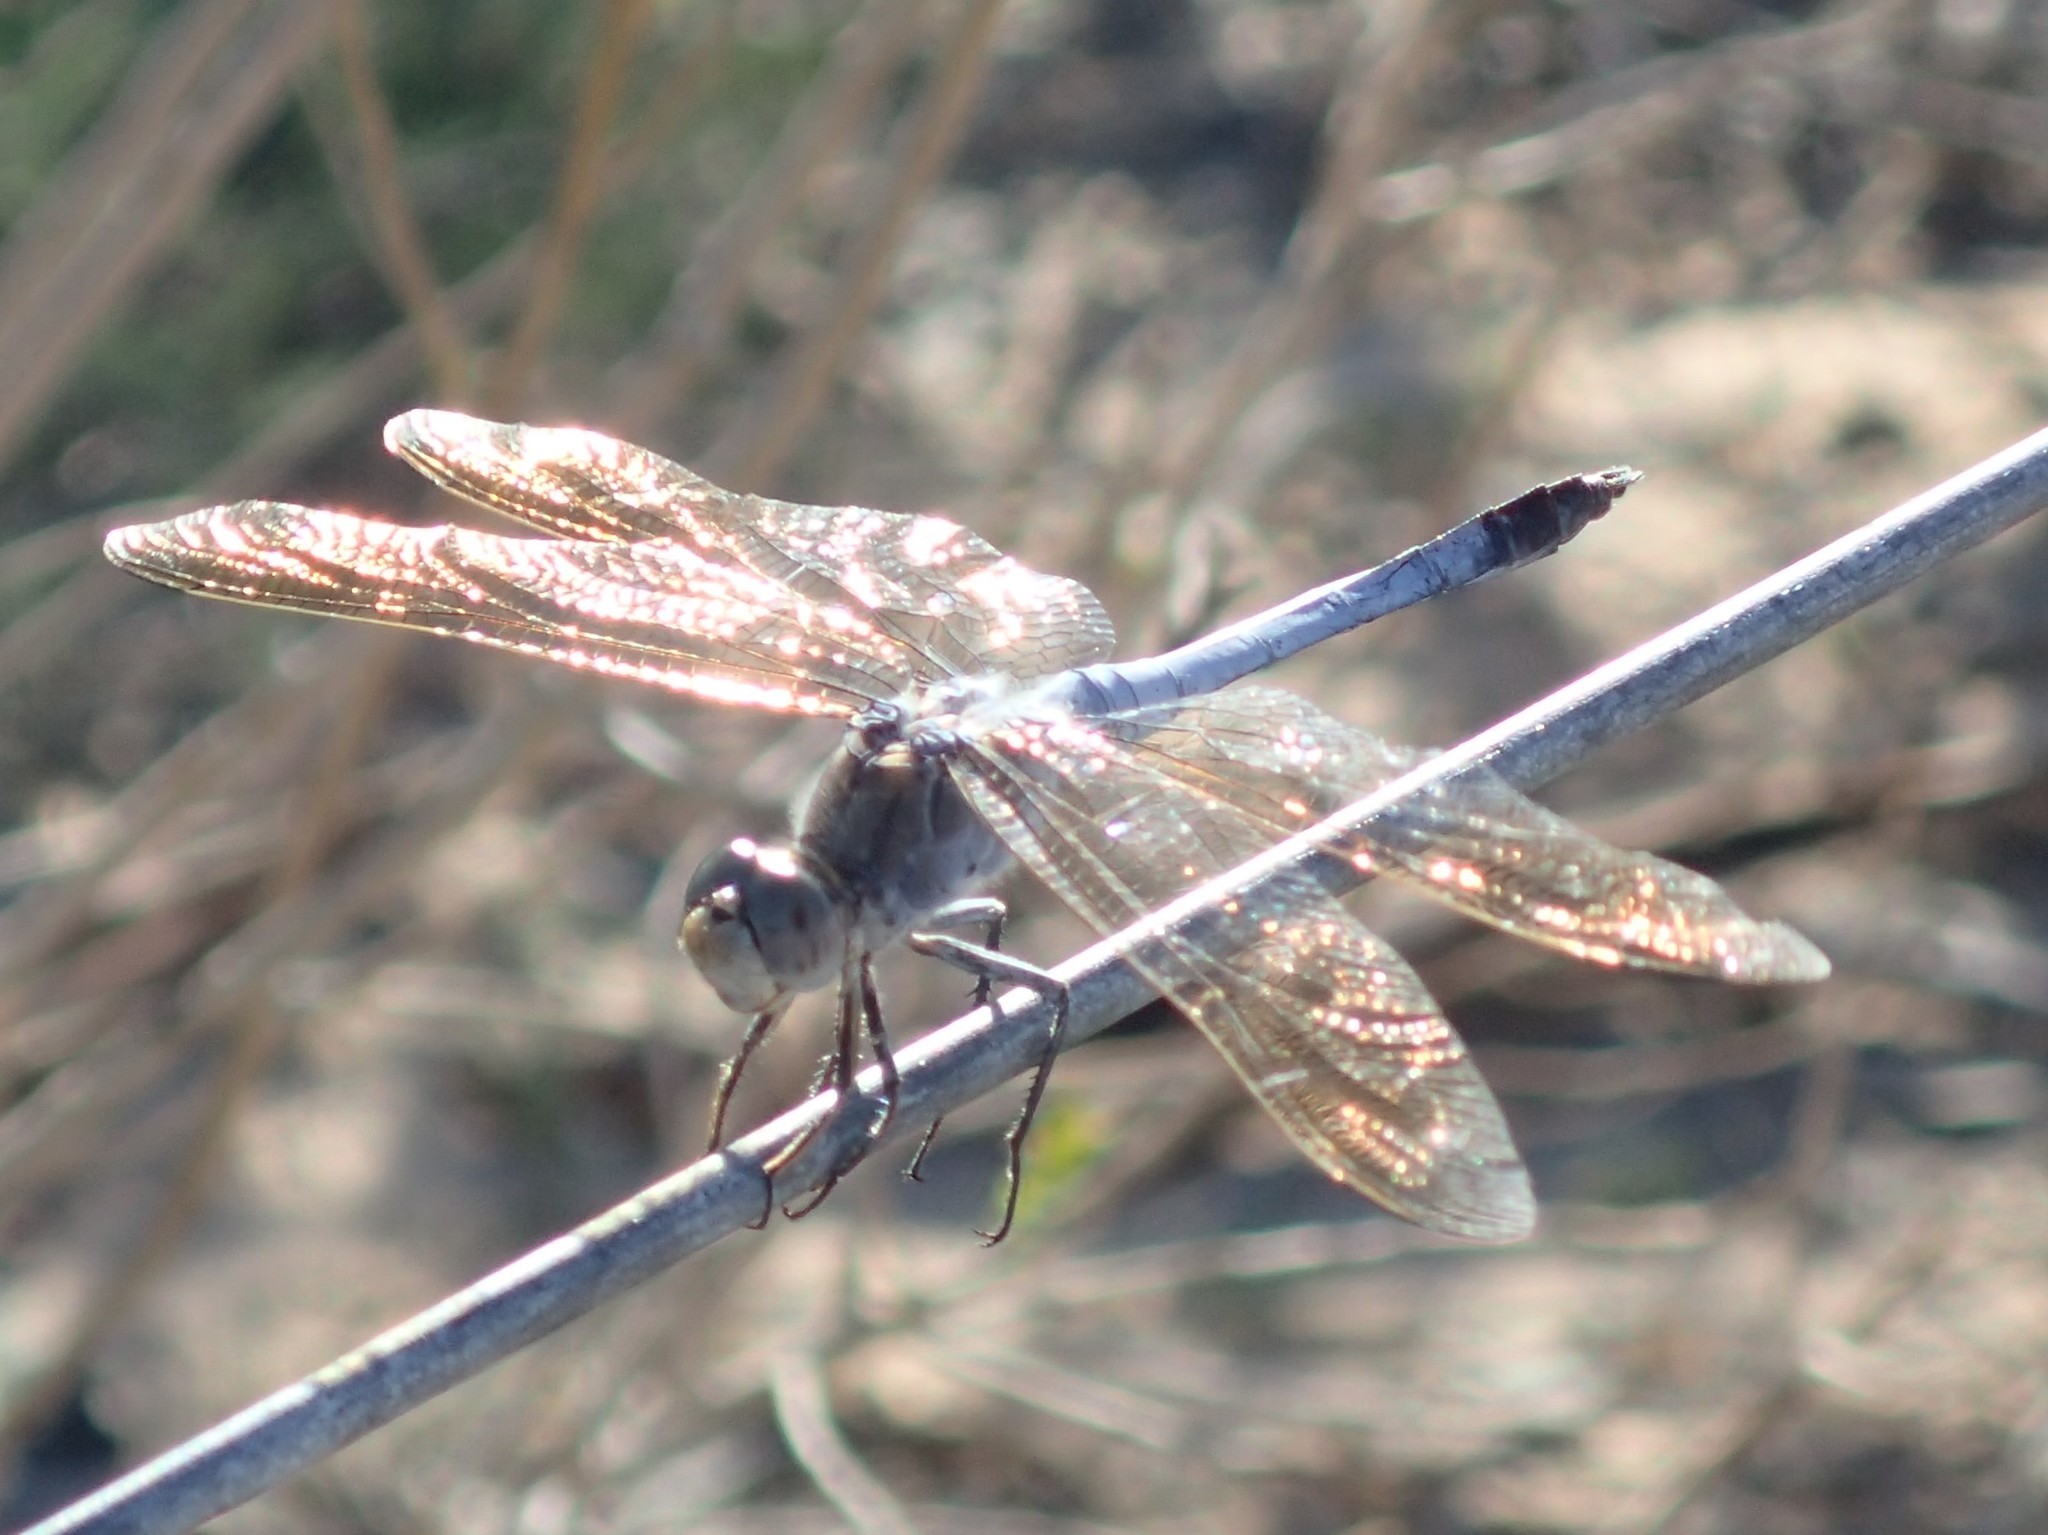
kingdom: Animalia
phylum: Arthropoda
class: Insecta
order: Odonata
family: Libellulidae
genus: Orthetrum
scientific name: Orthetrum caledonicum
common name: Blue skimmer
